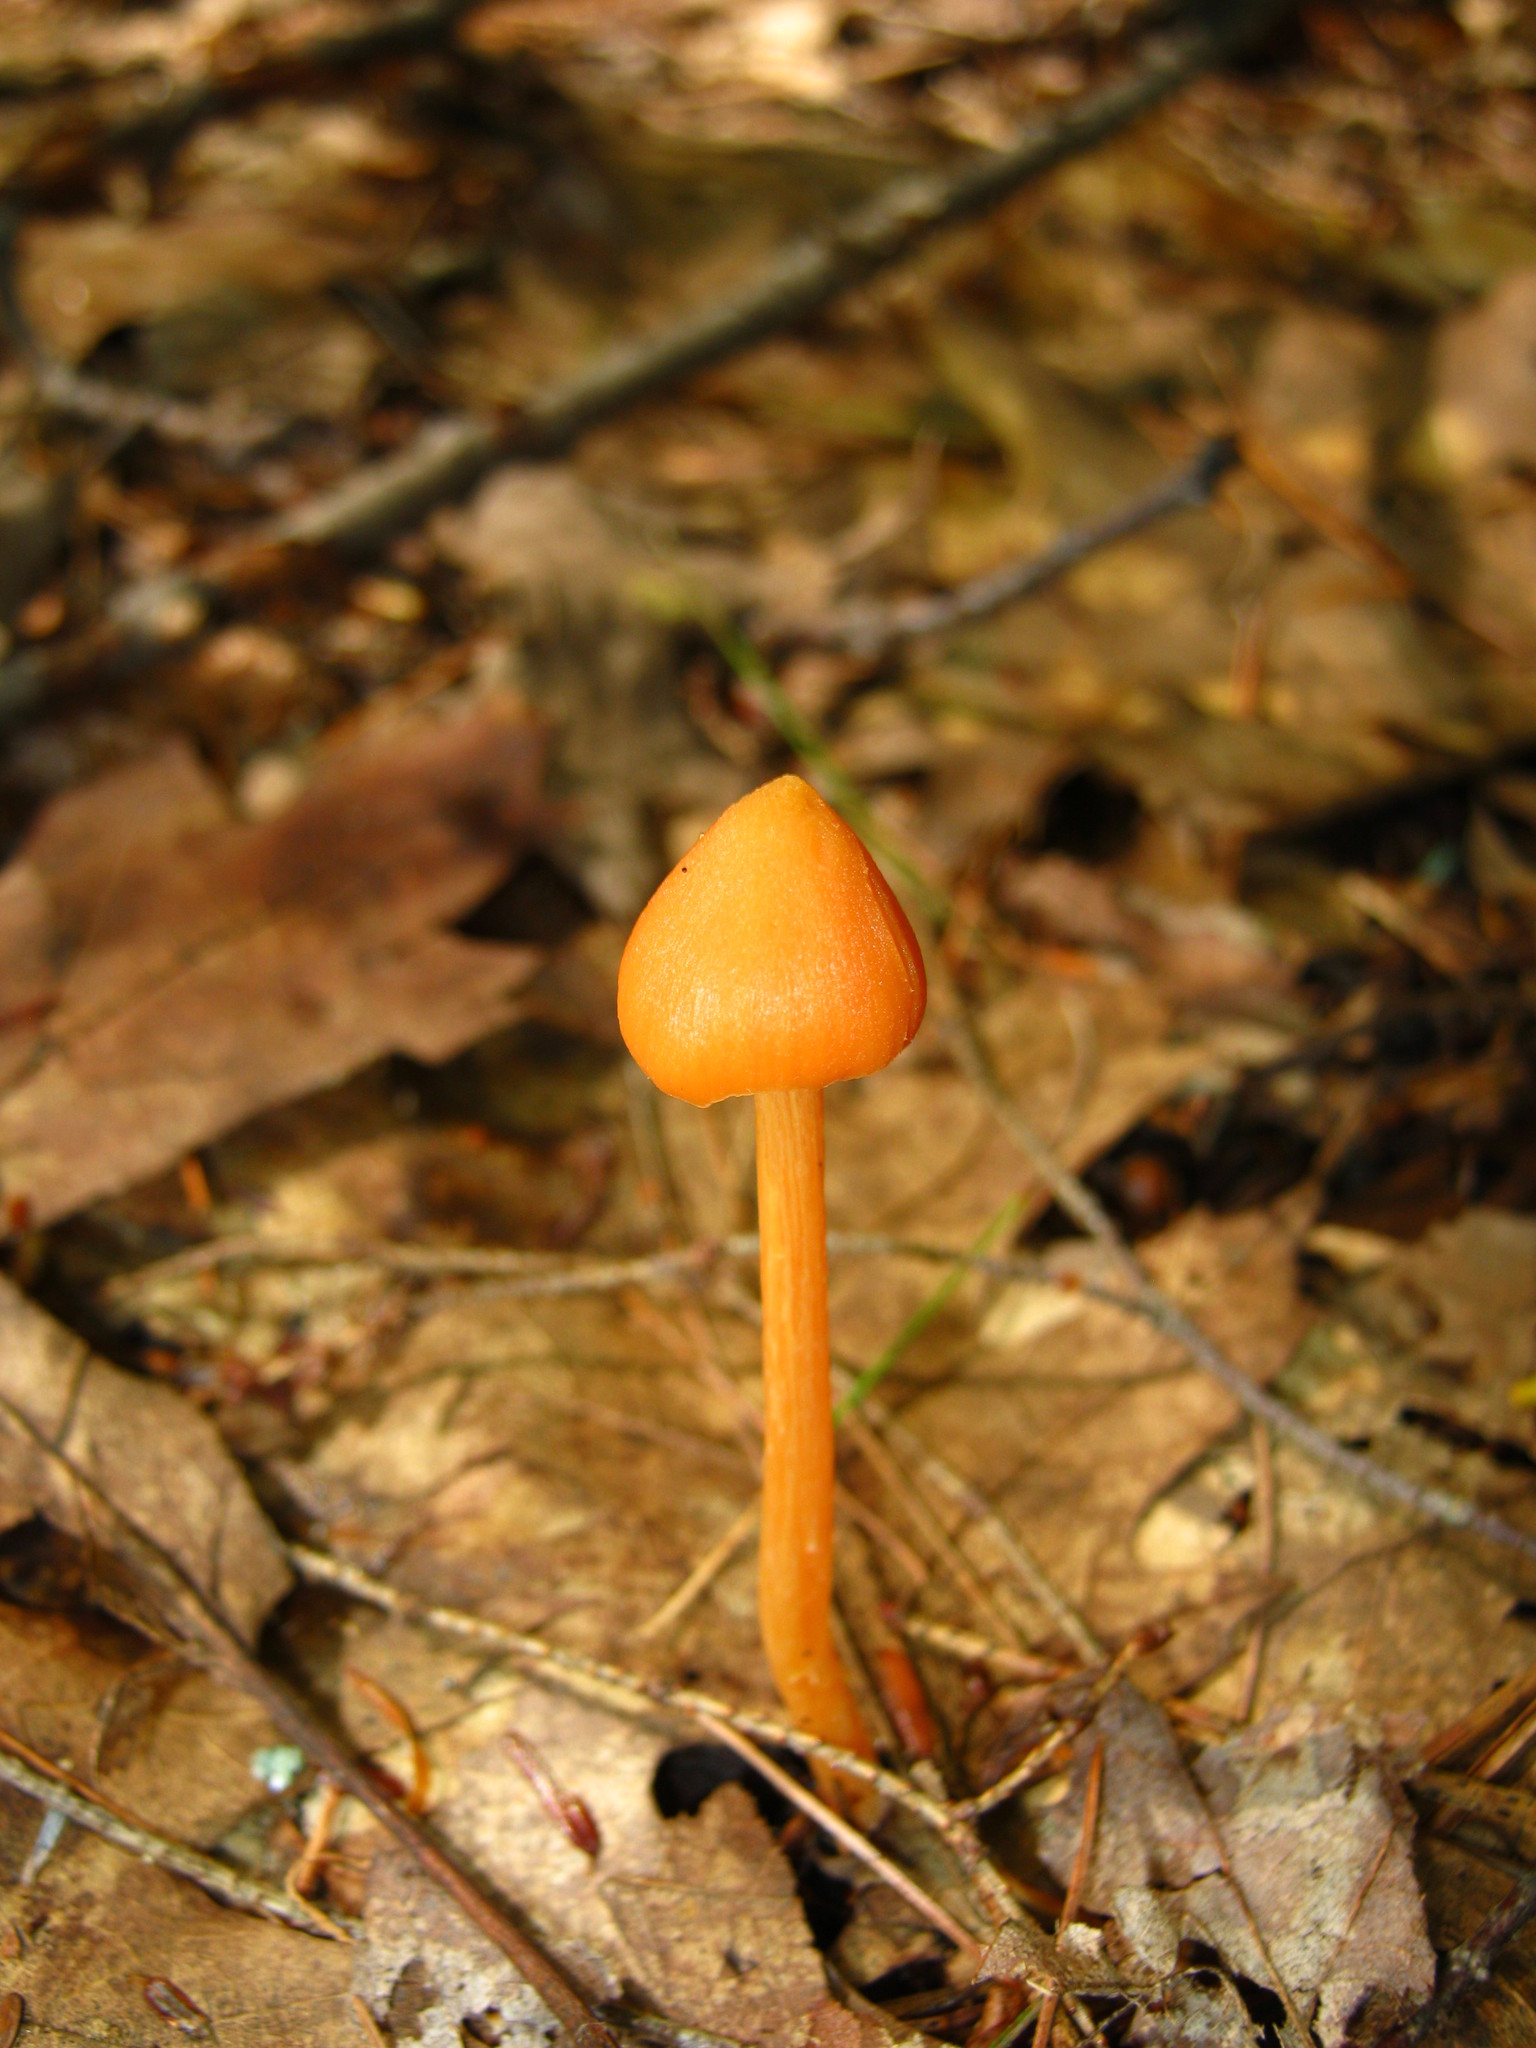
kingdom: Fungi
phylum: Basidiomycota
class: Agaricomycetes
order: Agaricales
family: Entolomataceae
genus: Entoloma
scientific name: Entoloma quadratum
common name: Salmon pinkgill
